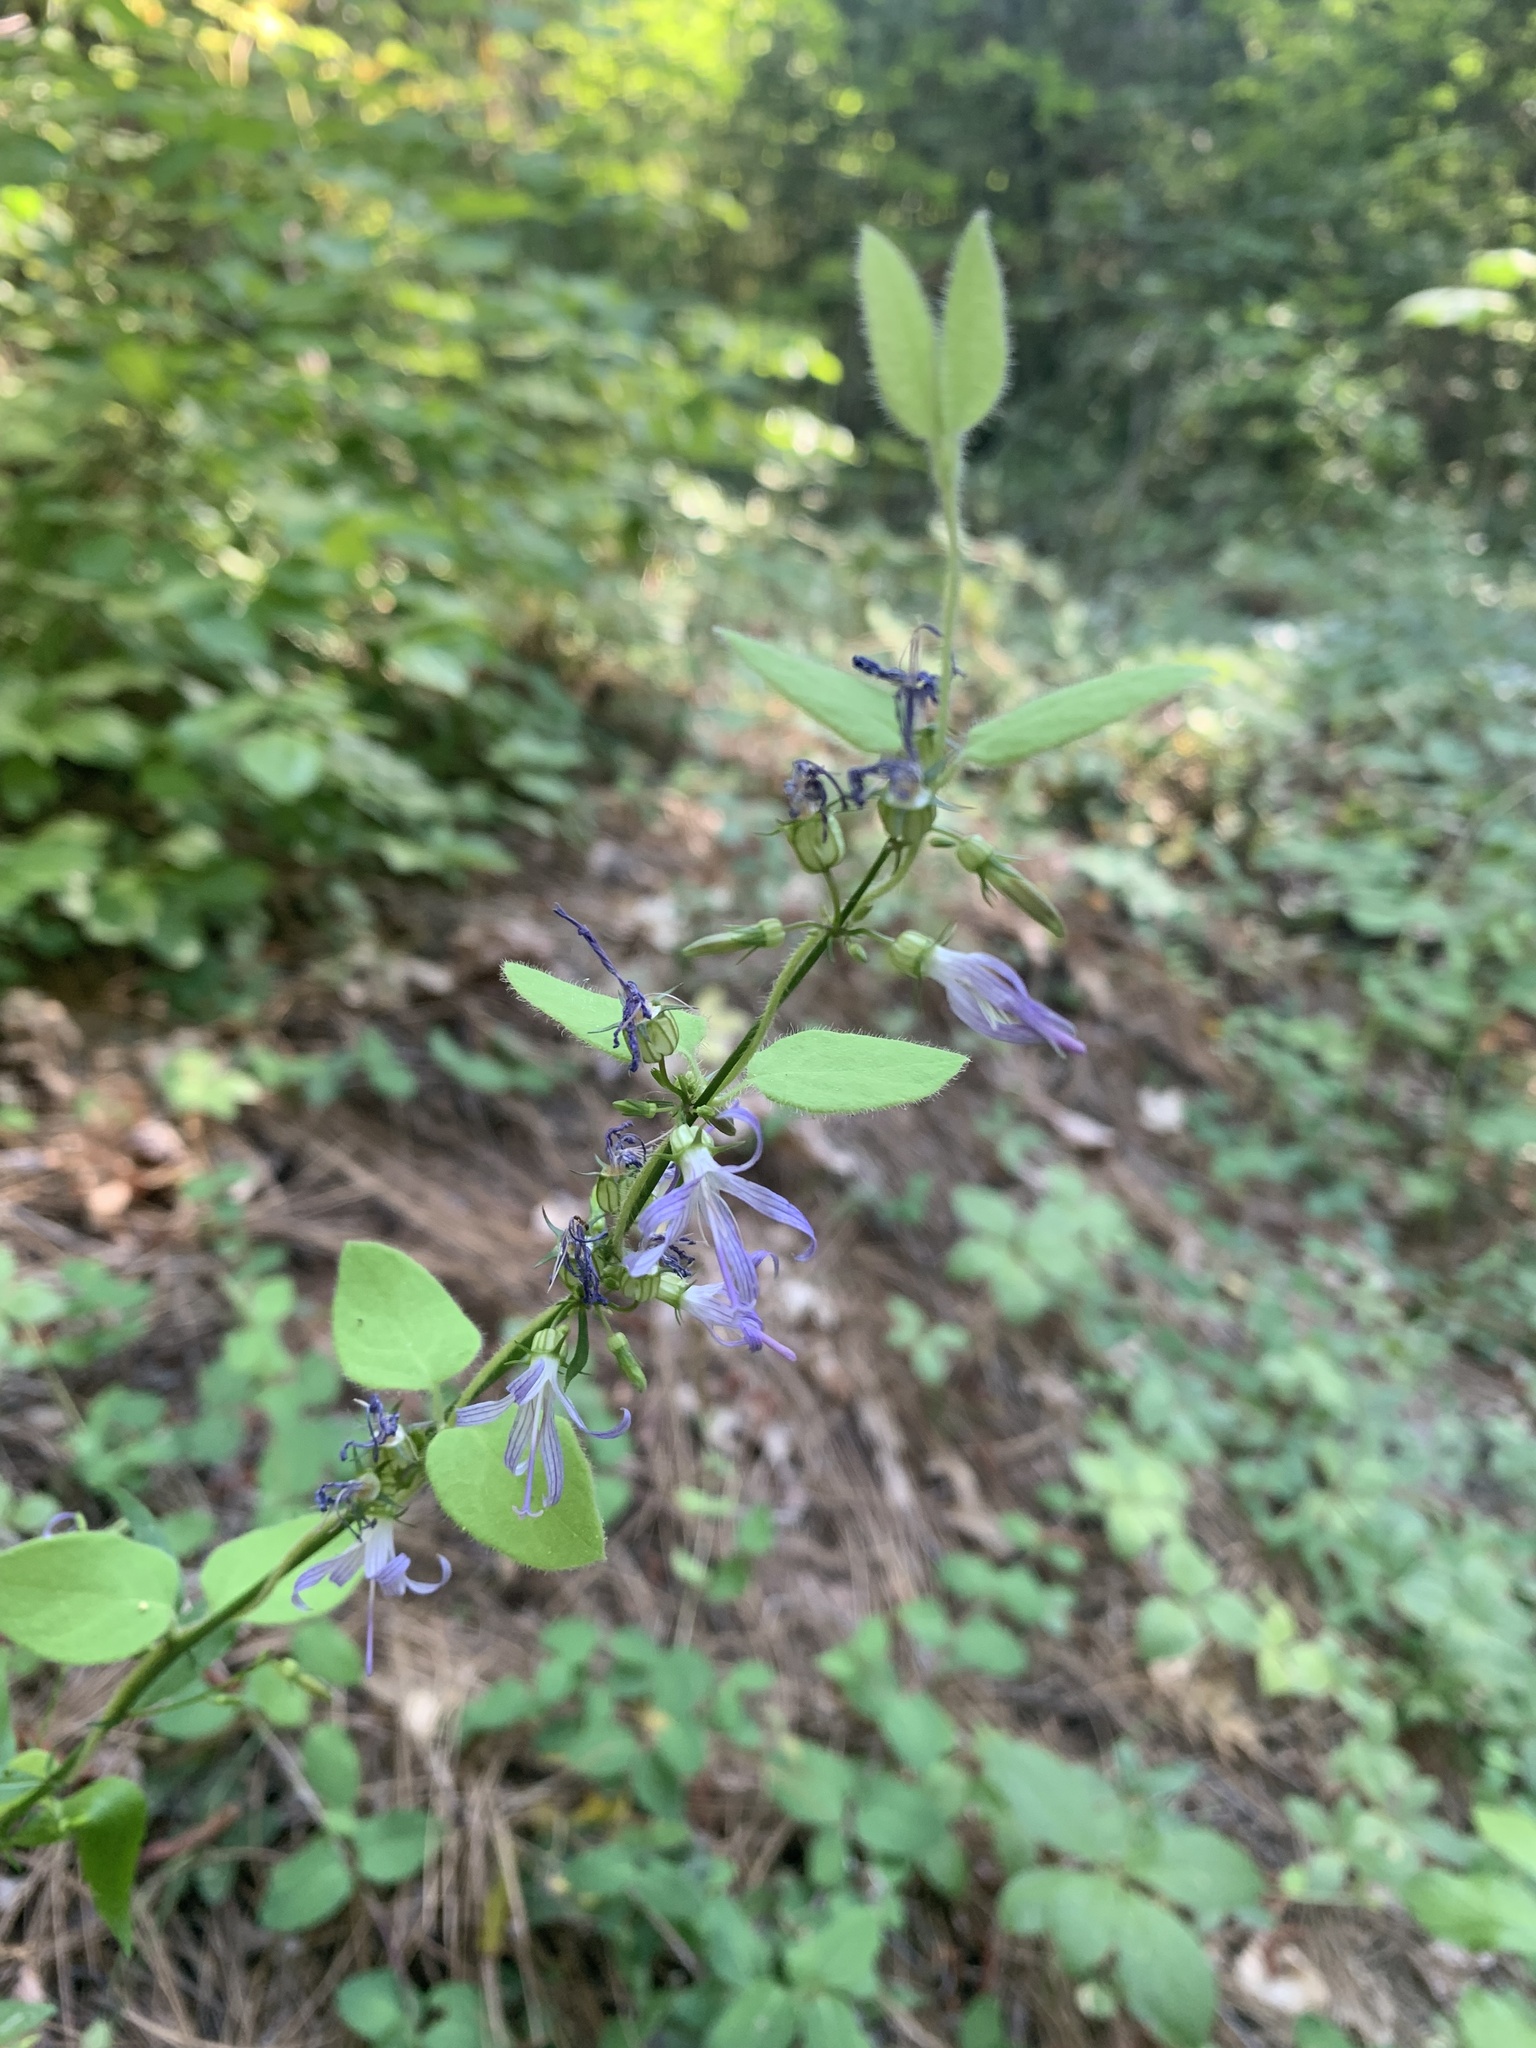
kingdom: Plantae
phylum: Tracheophyta
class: Magnoliopsida
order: Asterales
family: Campanulaceae
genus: Smithiastrum
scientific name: Smithiastrum prenanthoides
